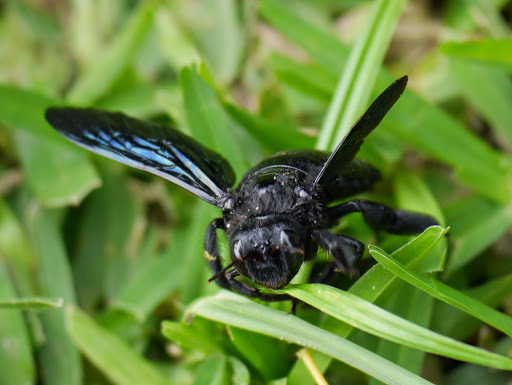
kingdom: Animalia
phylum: Arthropoda
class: Insecta
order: Hymenoptera
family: Apidae
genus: Xylocopa
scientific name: Xylocopa torrida
